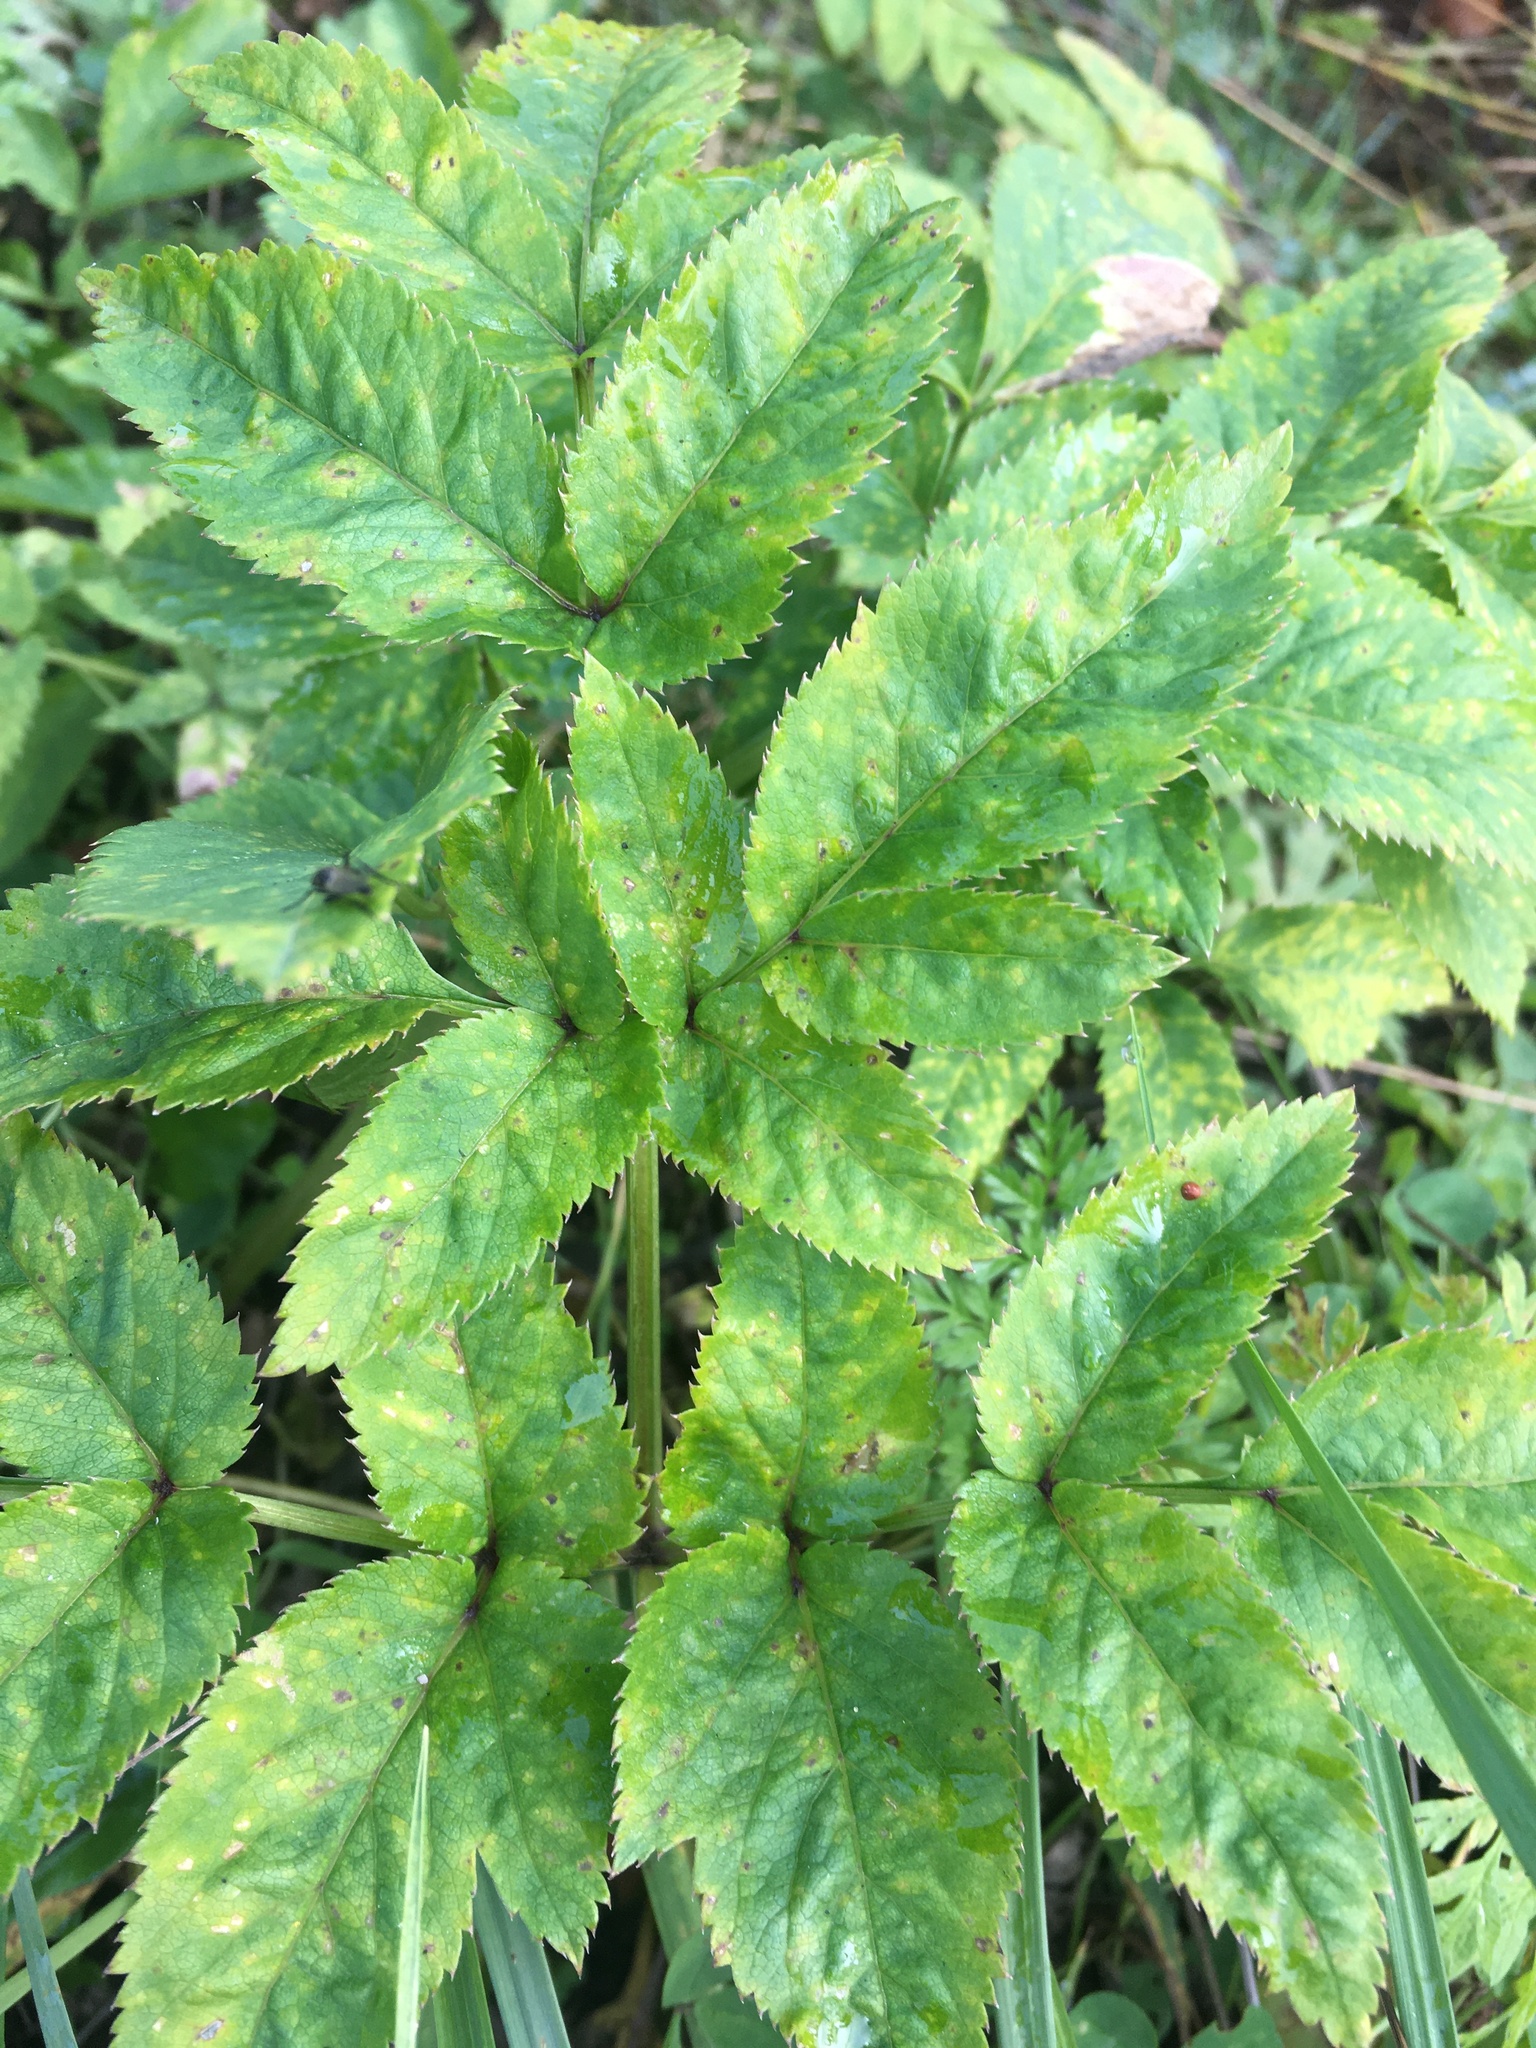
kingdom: Plantae
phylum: Tracheophyta
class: Magnoliopsida
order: Apiales
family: Apiaceae
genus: Angelica
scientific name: Angelica sylvestris
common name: Wild angelica
